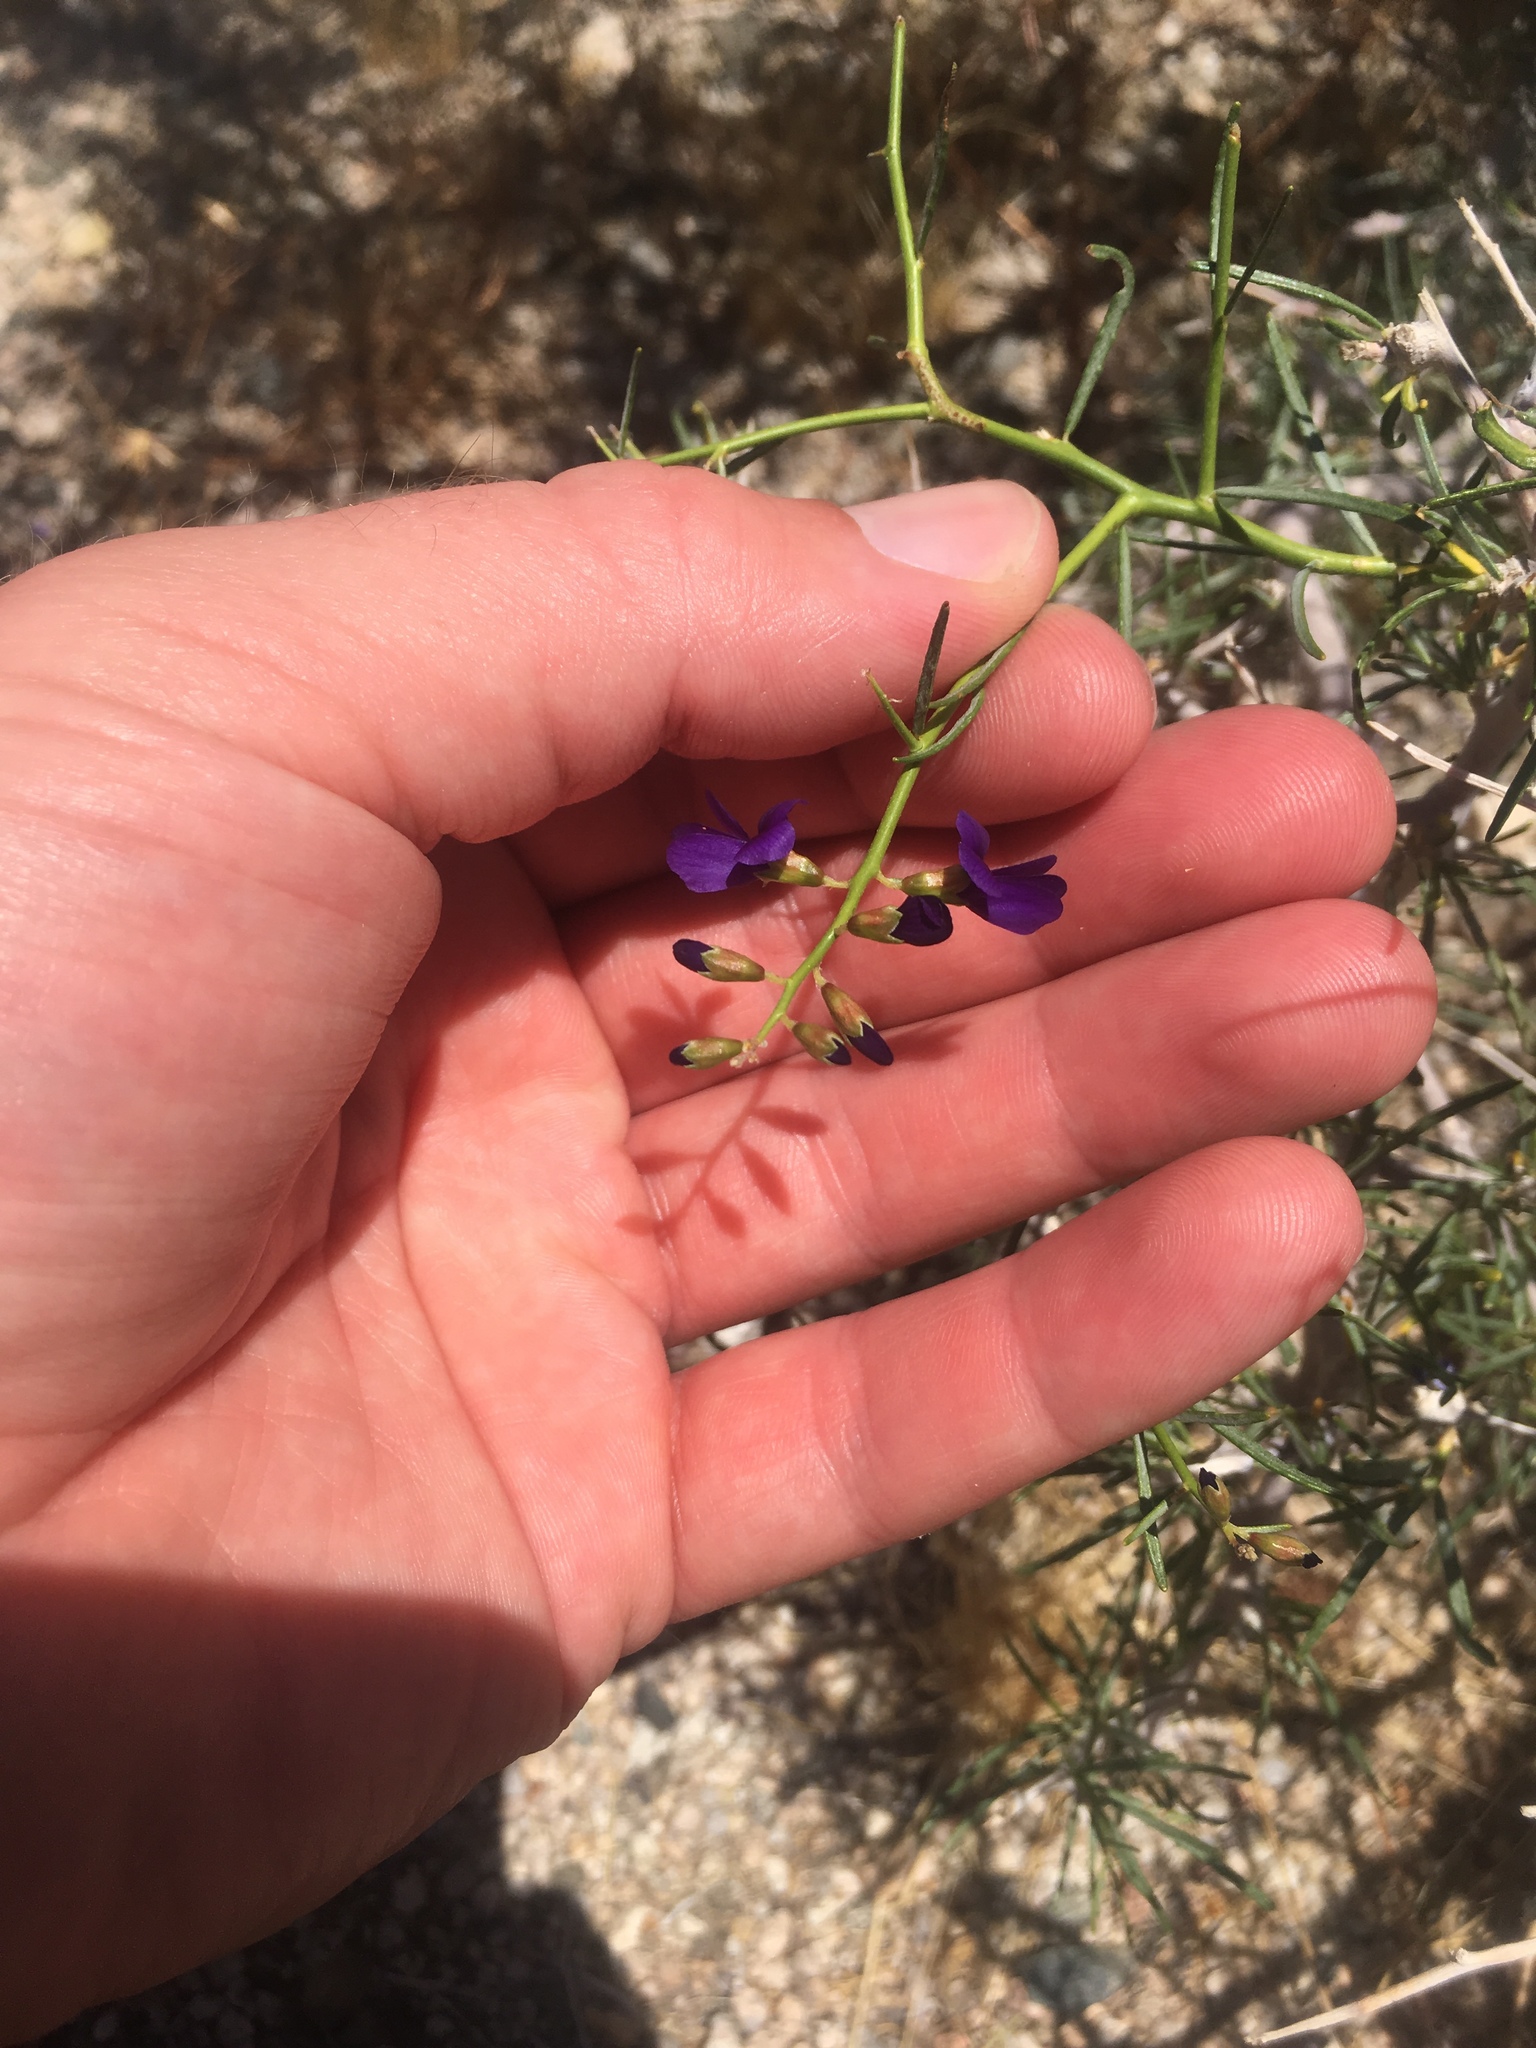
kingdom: Plantae
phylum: Tracheophyta
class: Magnoliopsida
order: Fabales
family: Fabaceae
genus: Psorothamnus
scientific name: Psorothamnus schottii
